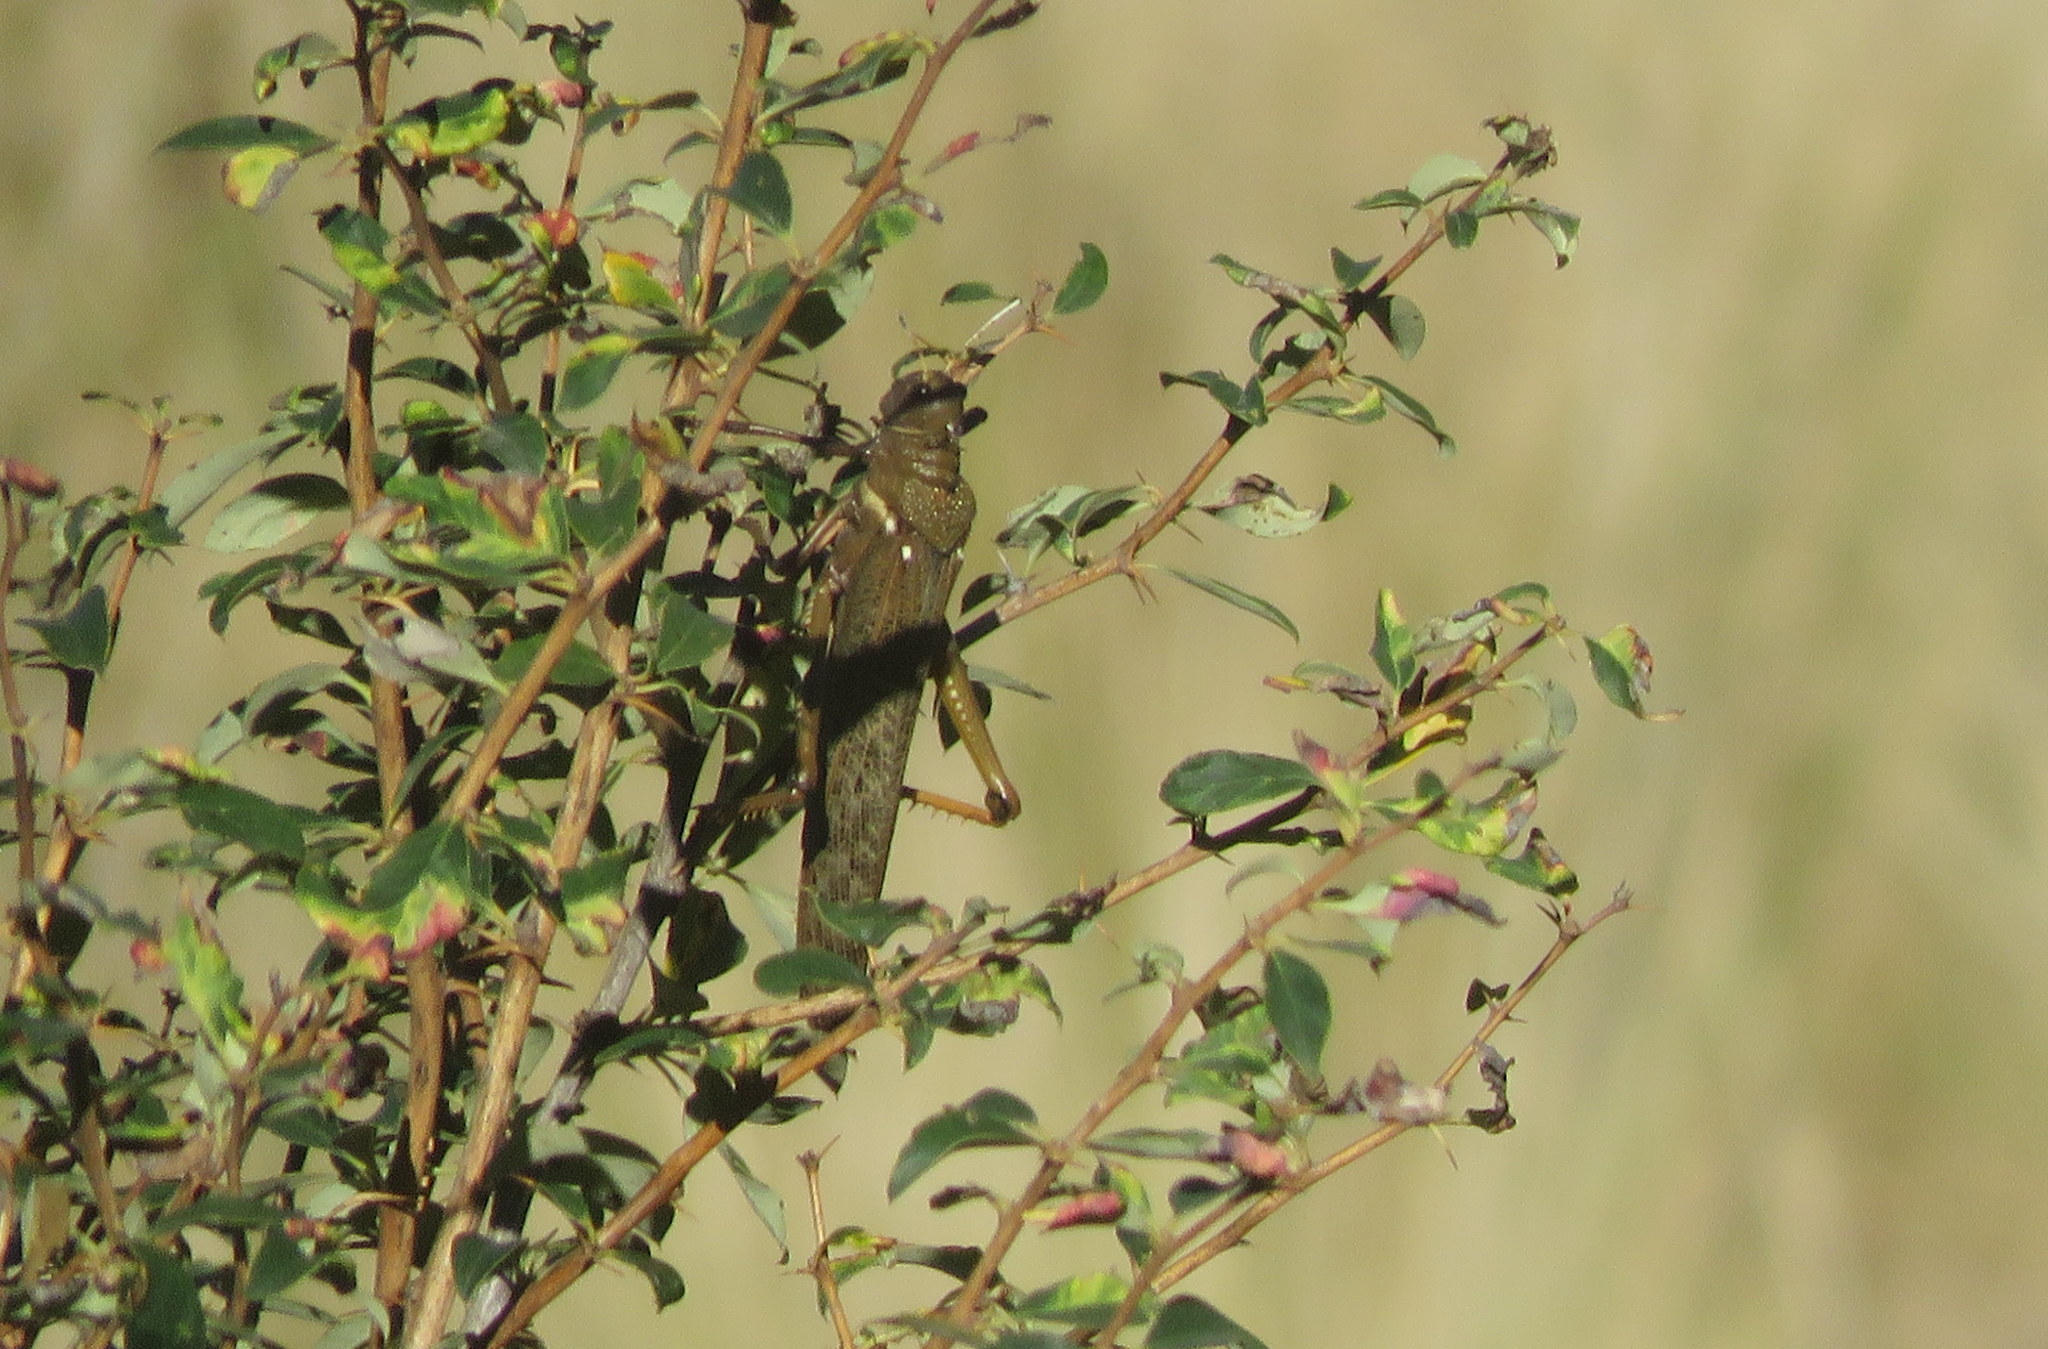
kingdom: Animalia
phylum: Arthropoda
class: Insecta
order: Orthoptera
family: Romaleidae
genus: Tropidacris
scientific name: Tropidacris collaris
